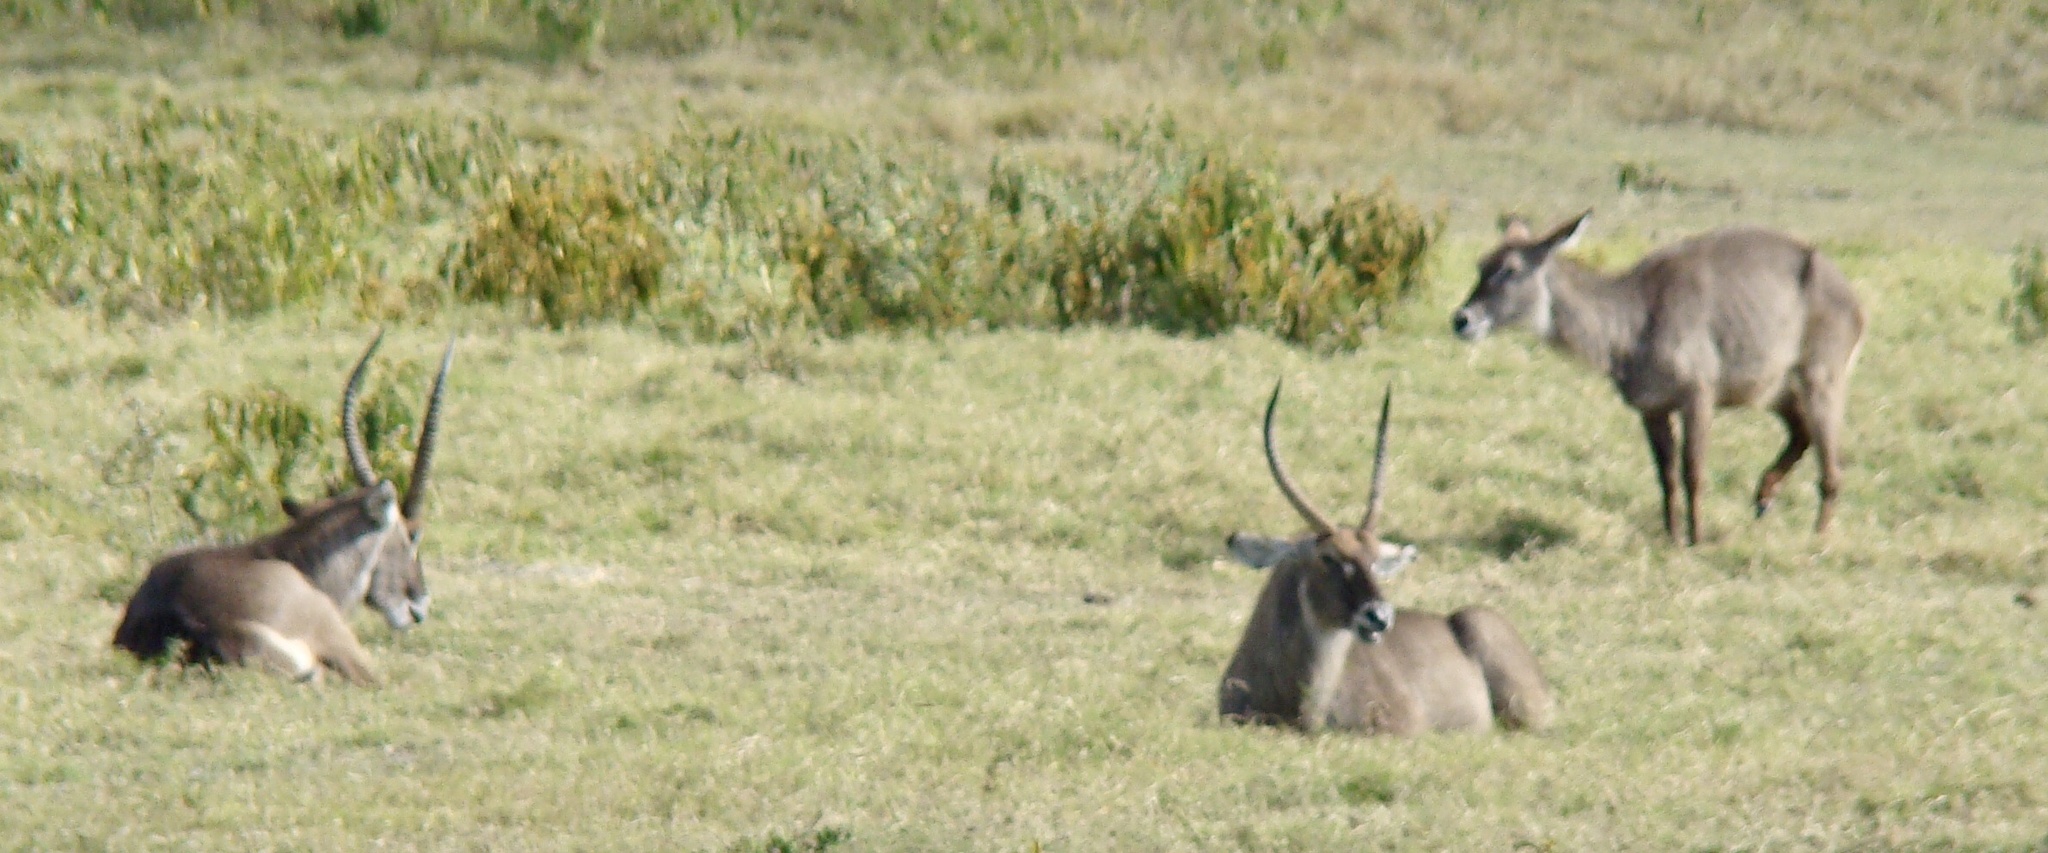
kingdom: Animalia
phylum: Chordata
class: Mammalia
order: Artiodactyla
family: Bovidae
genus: Kobus
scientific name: Kobus ellipsiprymnus
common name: Waterbuck
